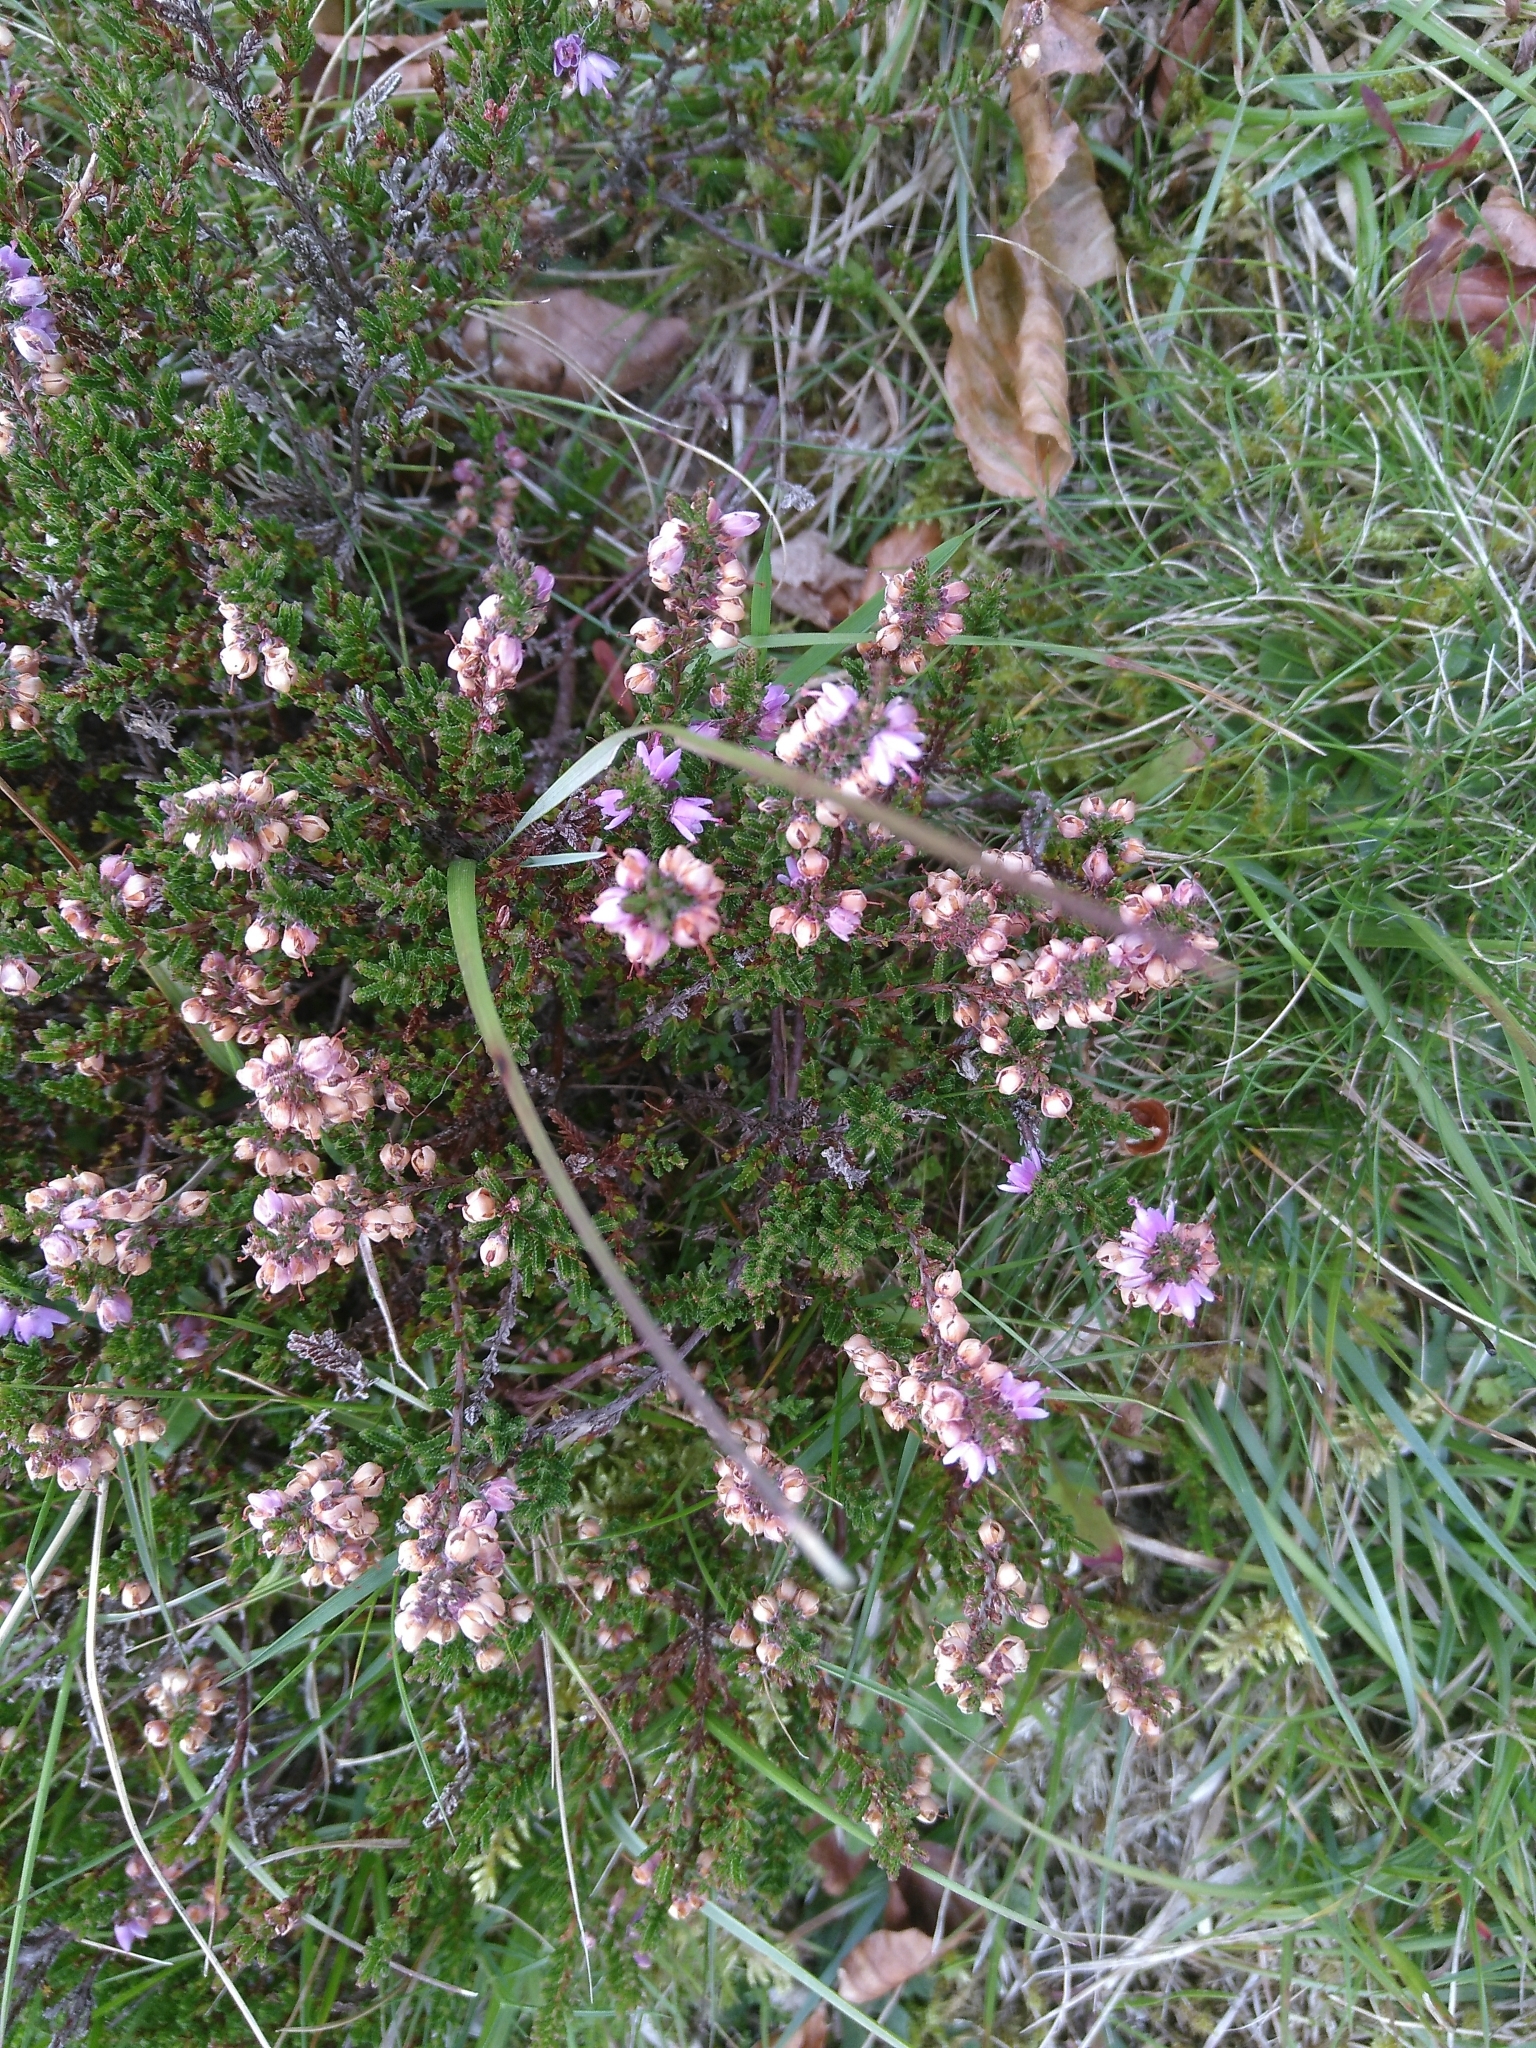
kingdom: Plantae
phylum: Tracheophyta
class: Magnoliopsida
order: Ericales
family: Ericaceae
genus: Calluna
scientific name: Calluna vulgaris
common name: Heather
